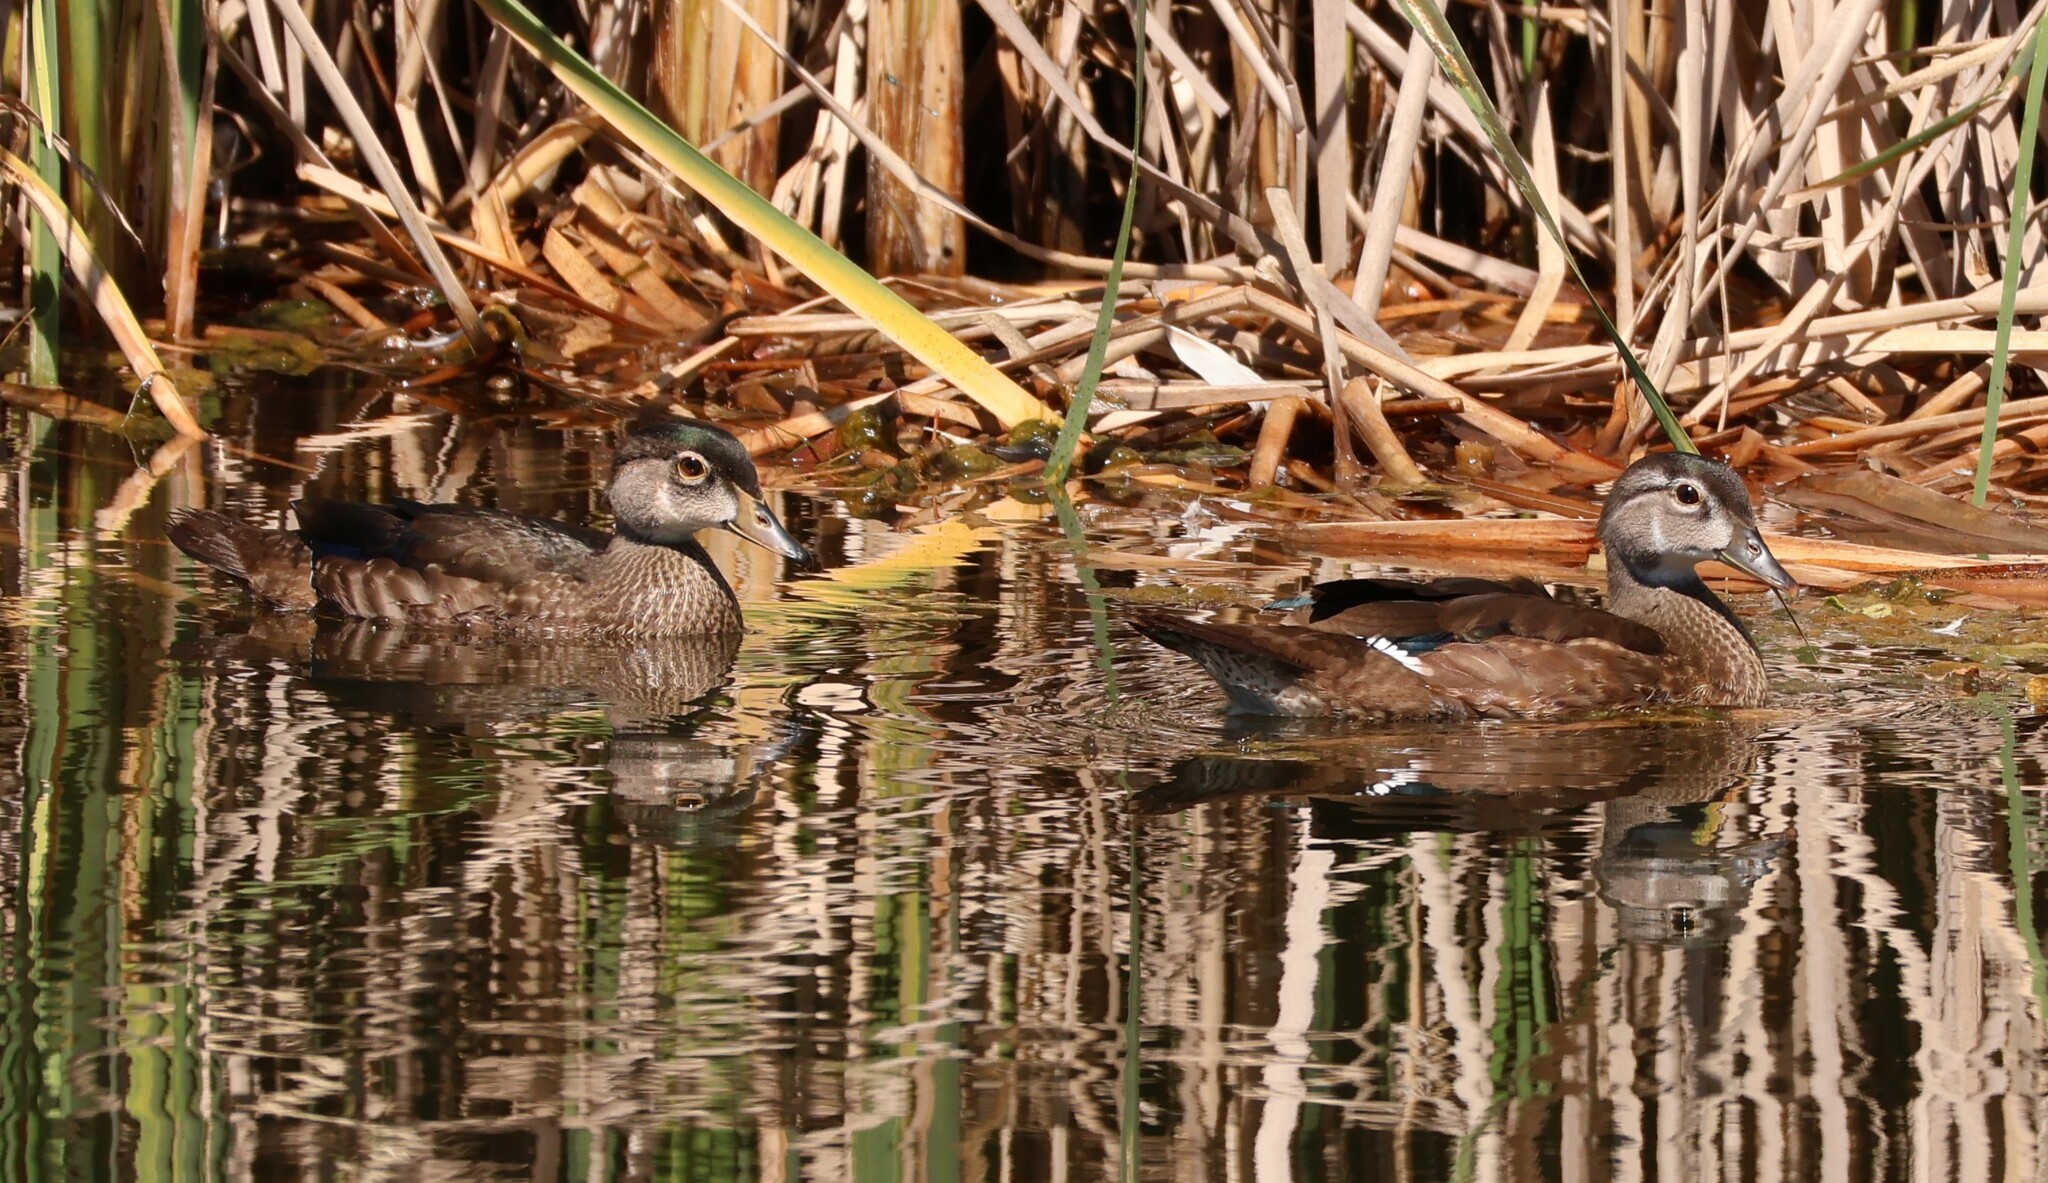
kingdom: Animalia
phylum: Chordata
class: Aves
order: Anseriformes
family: Anatidae
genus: Aix
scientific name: Aix sponsa
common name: Wood duck
